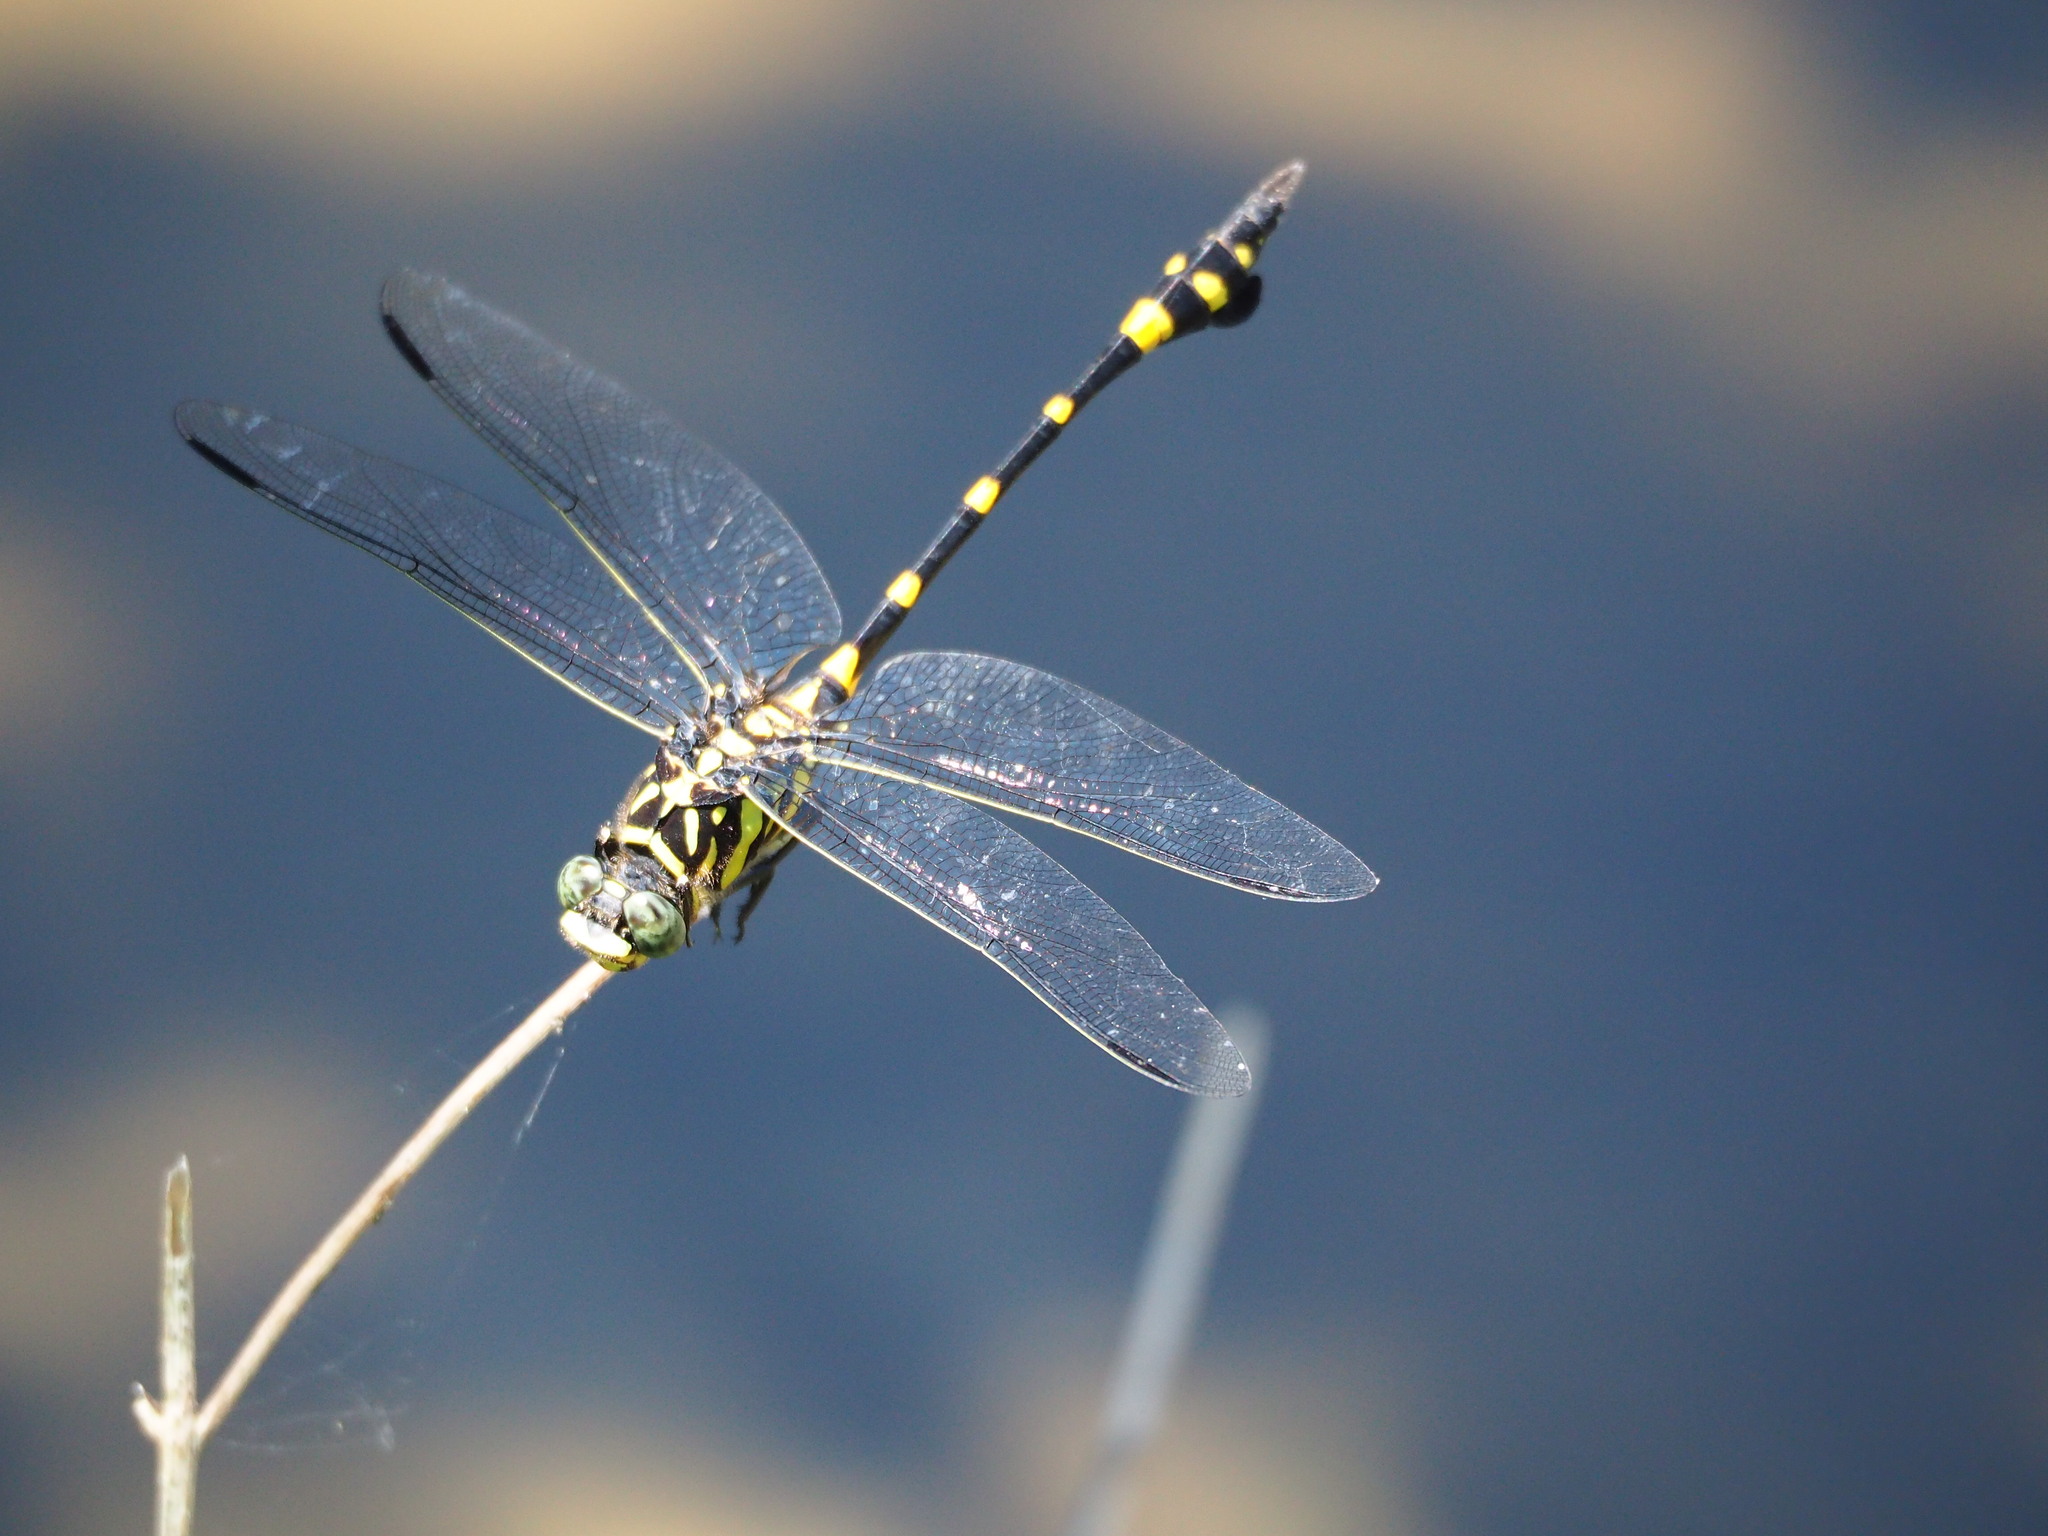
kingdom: Animalia
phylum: Arthropoda
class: Insecta
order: Odonata
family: Gomphidae
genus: Ictinogomphus
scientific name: Ictinogomphus rapax
